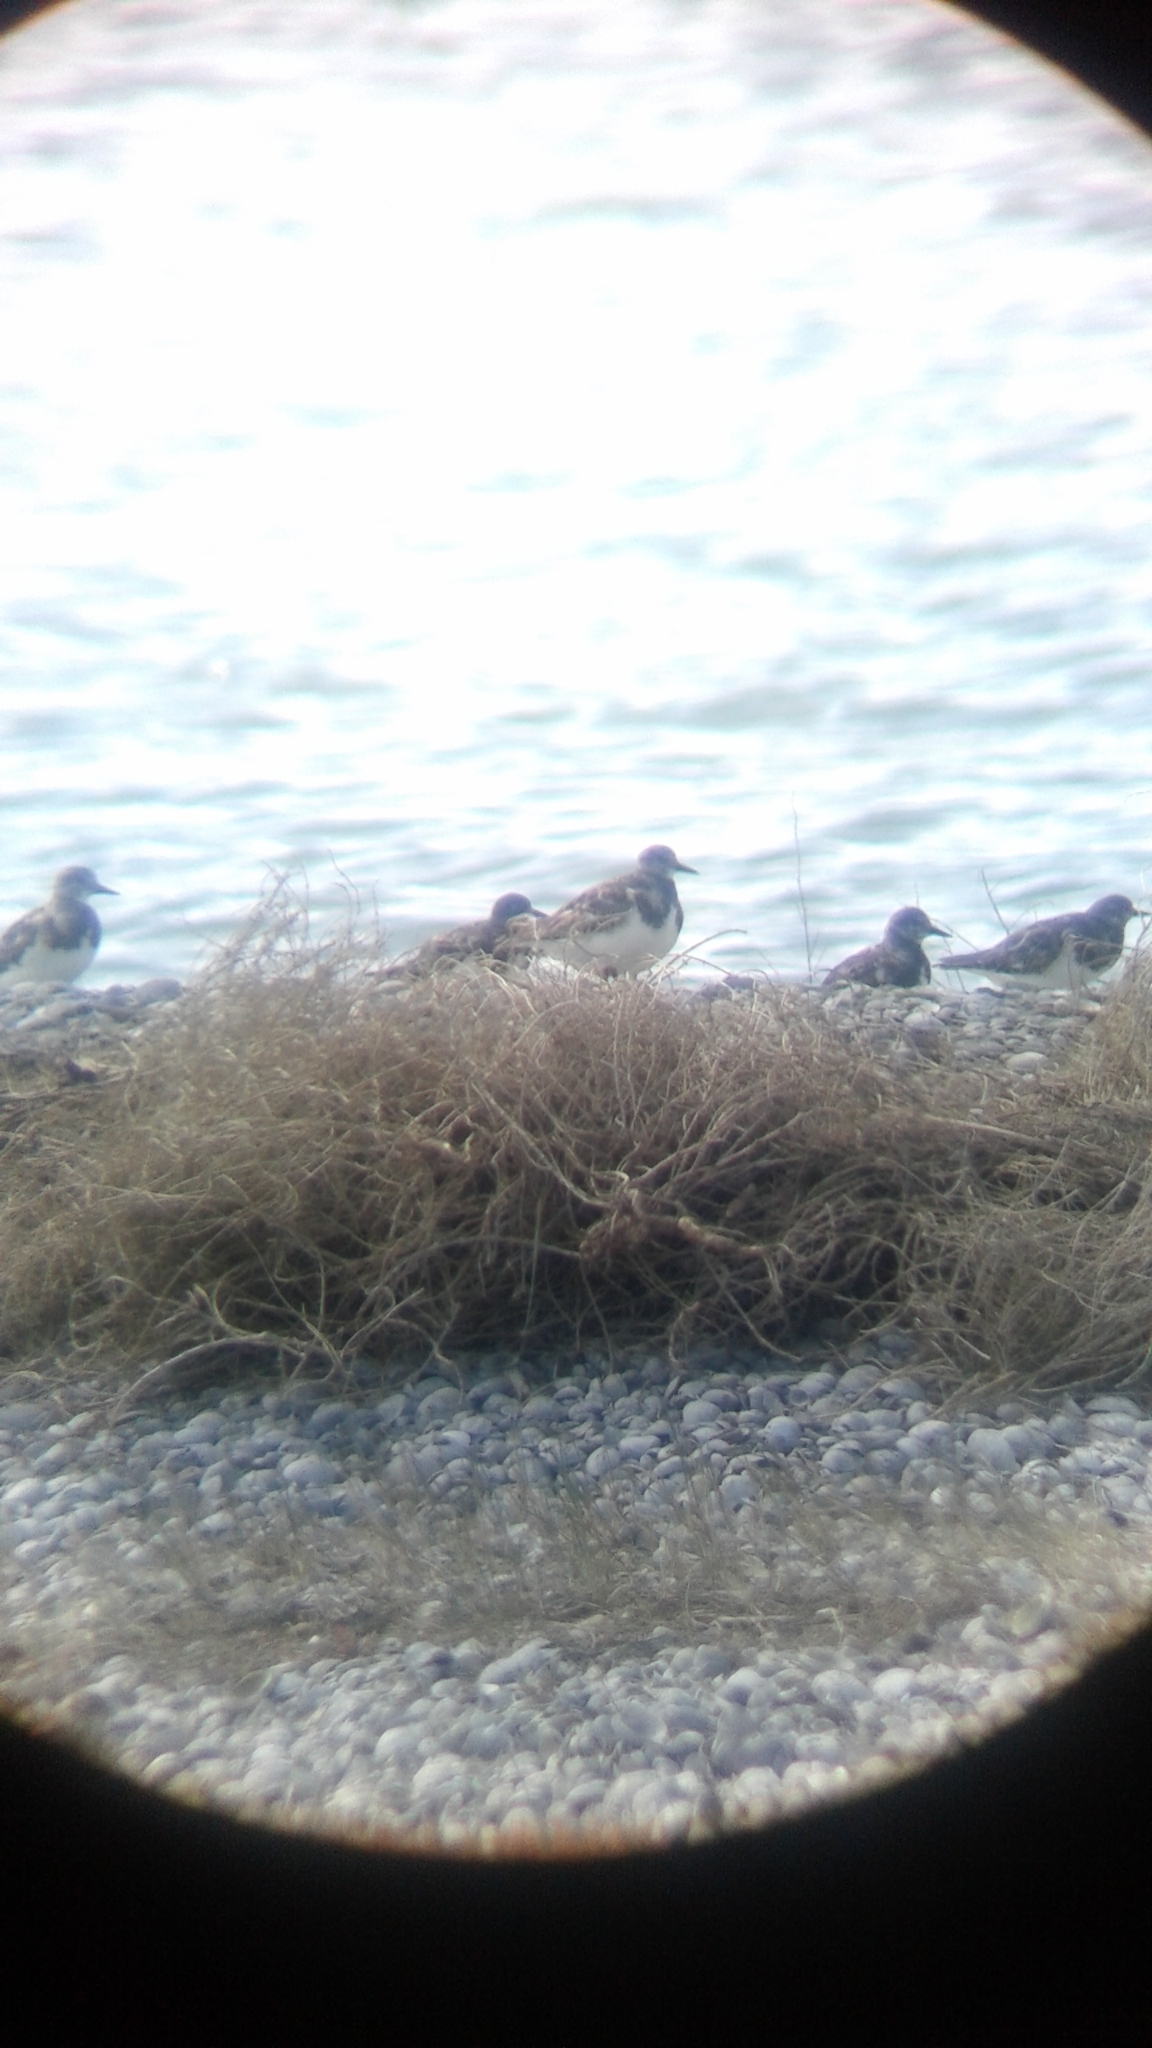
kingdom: Animalia
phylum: Chordata
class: Aves
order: Charadriiformes
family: Scolopacidae
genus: Arenaria
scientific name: Arenaria interpres
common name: Ruddy turnstone
